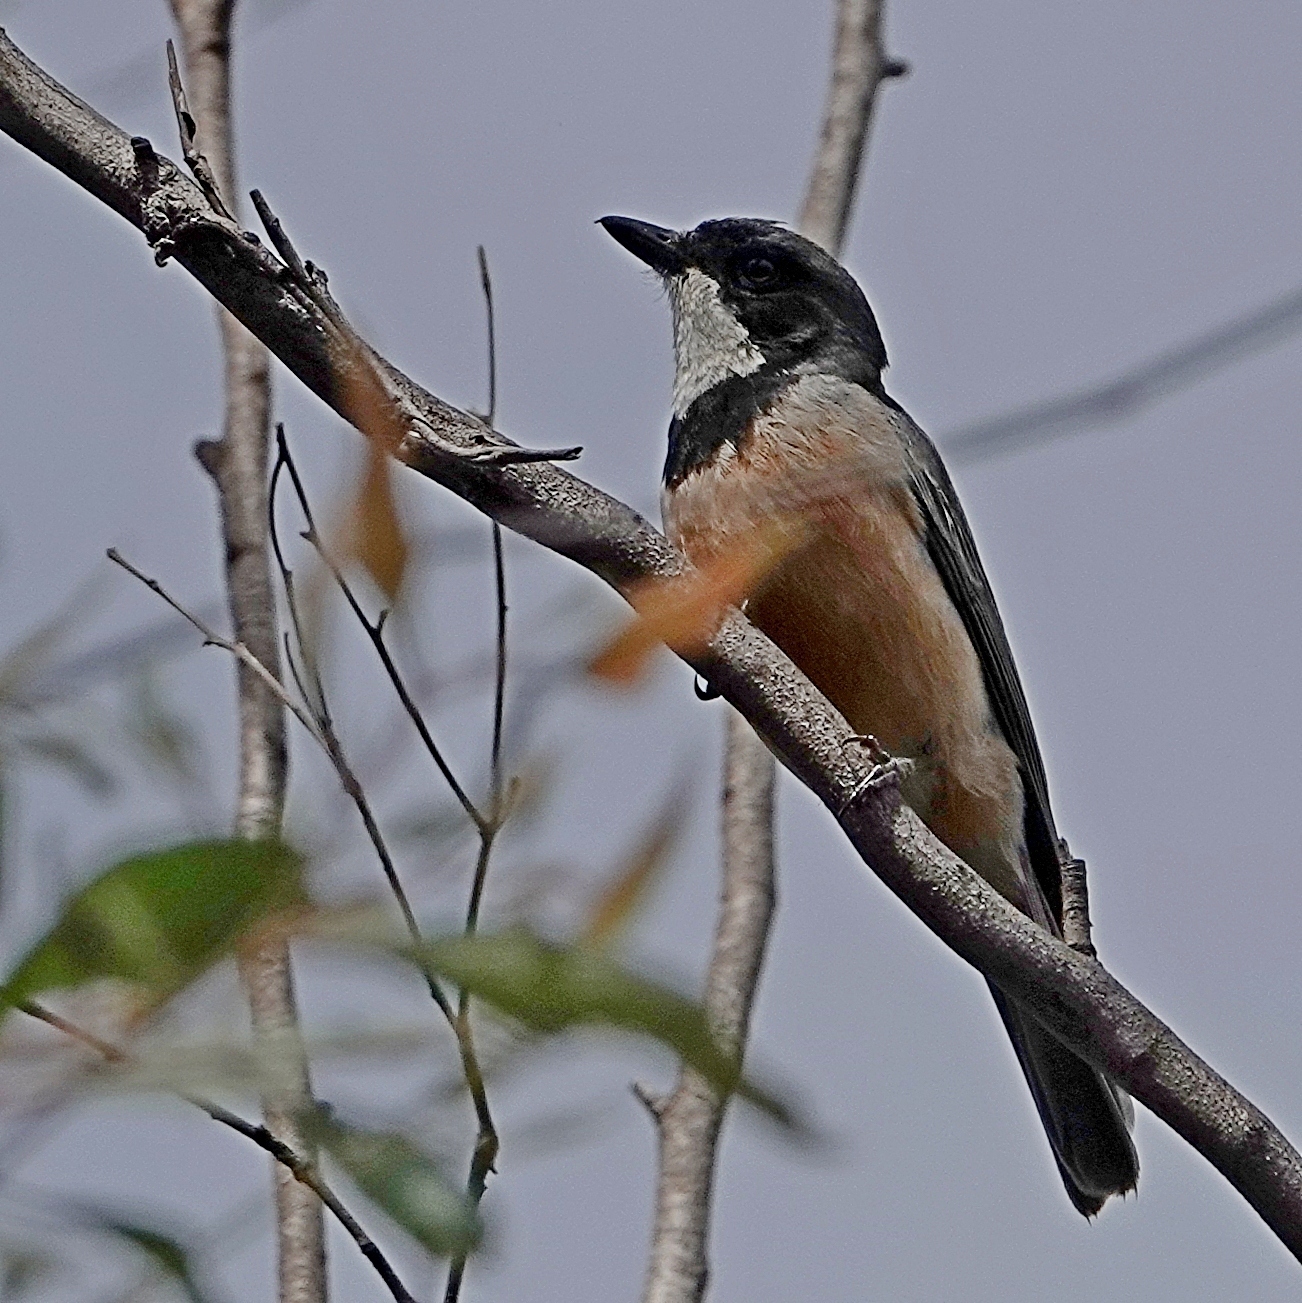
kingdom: Animalia
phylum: Chordata
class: Aves
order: Passeriformes
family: Pachycephalidae
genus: Pachycephala
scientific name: Pachycephala rufiventris
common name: Rufous whistler
